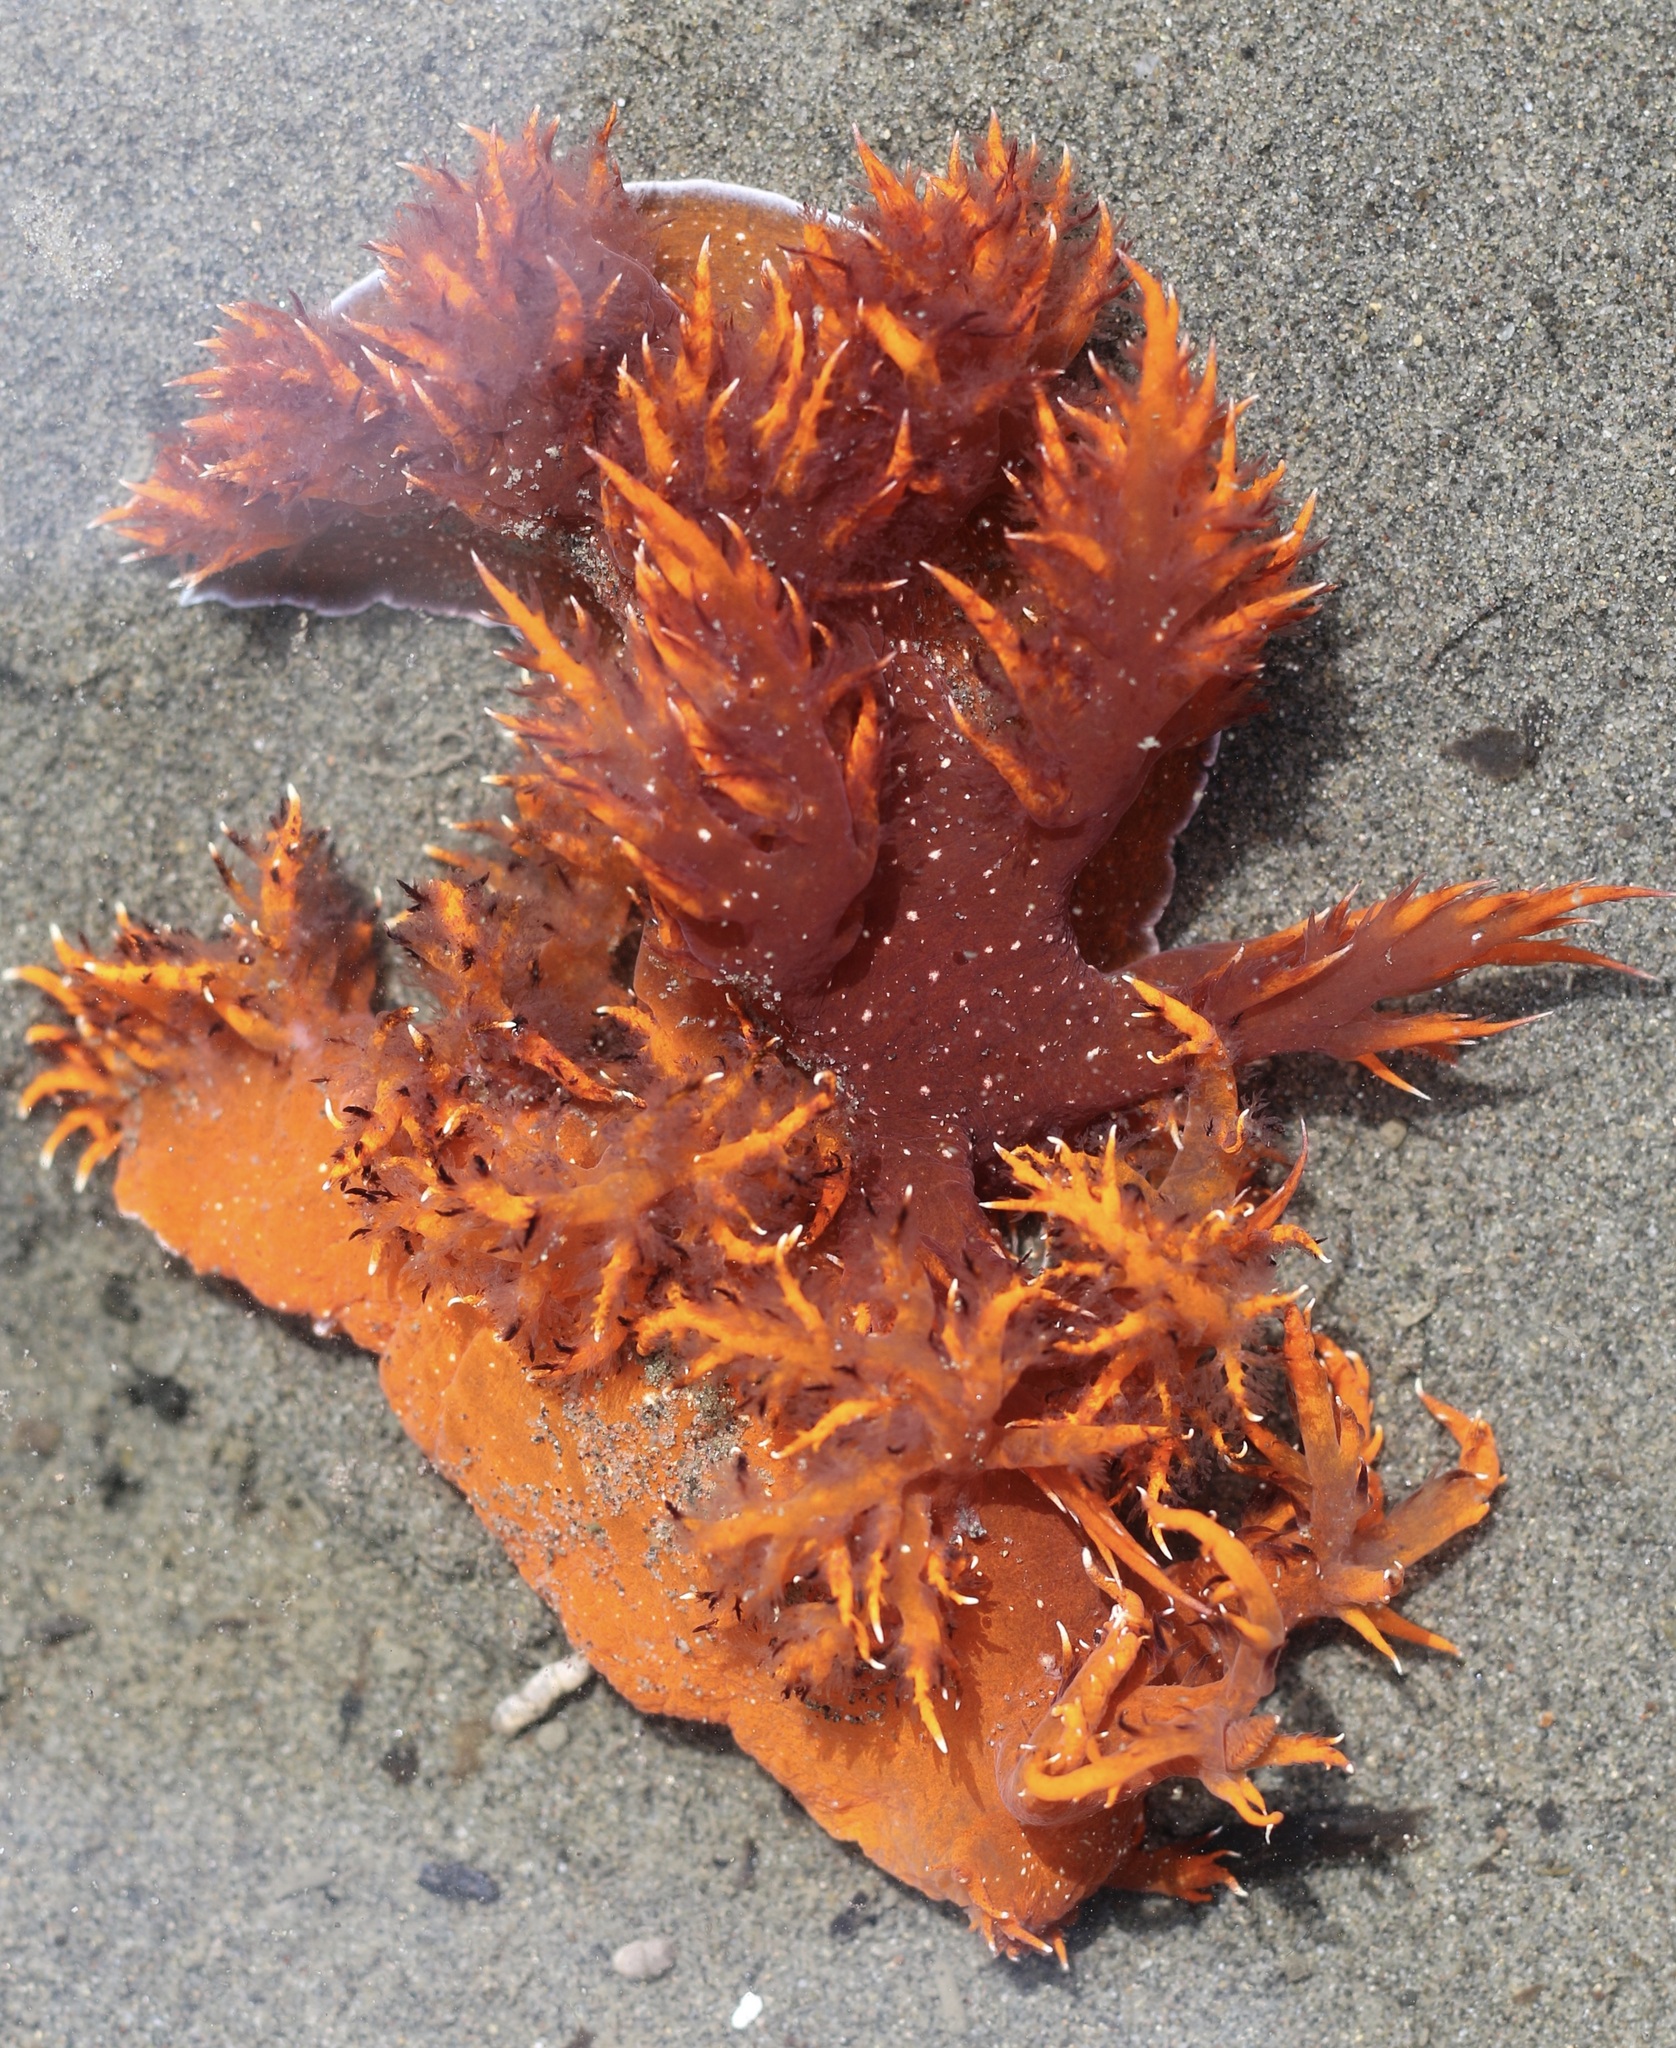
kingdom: Animalia
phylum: Mollusca
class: Gastropoda
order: Nudibranchia
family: Dendronotidae
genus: Dendronotus
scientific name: Dendronotus iris
